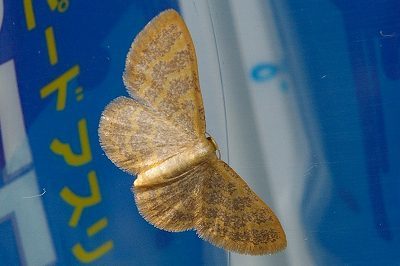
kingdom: Animalia
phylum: Arthropoda
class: Insecta
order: Lepidoptera
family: Geometridae
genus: Idaea
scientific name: Idaea remissa
